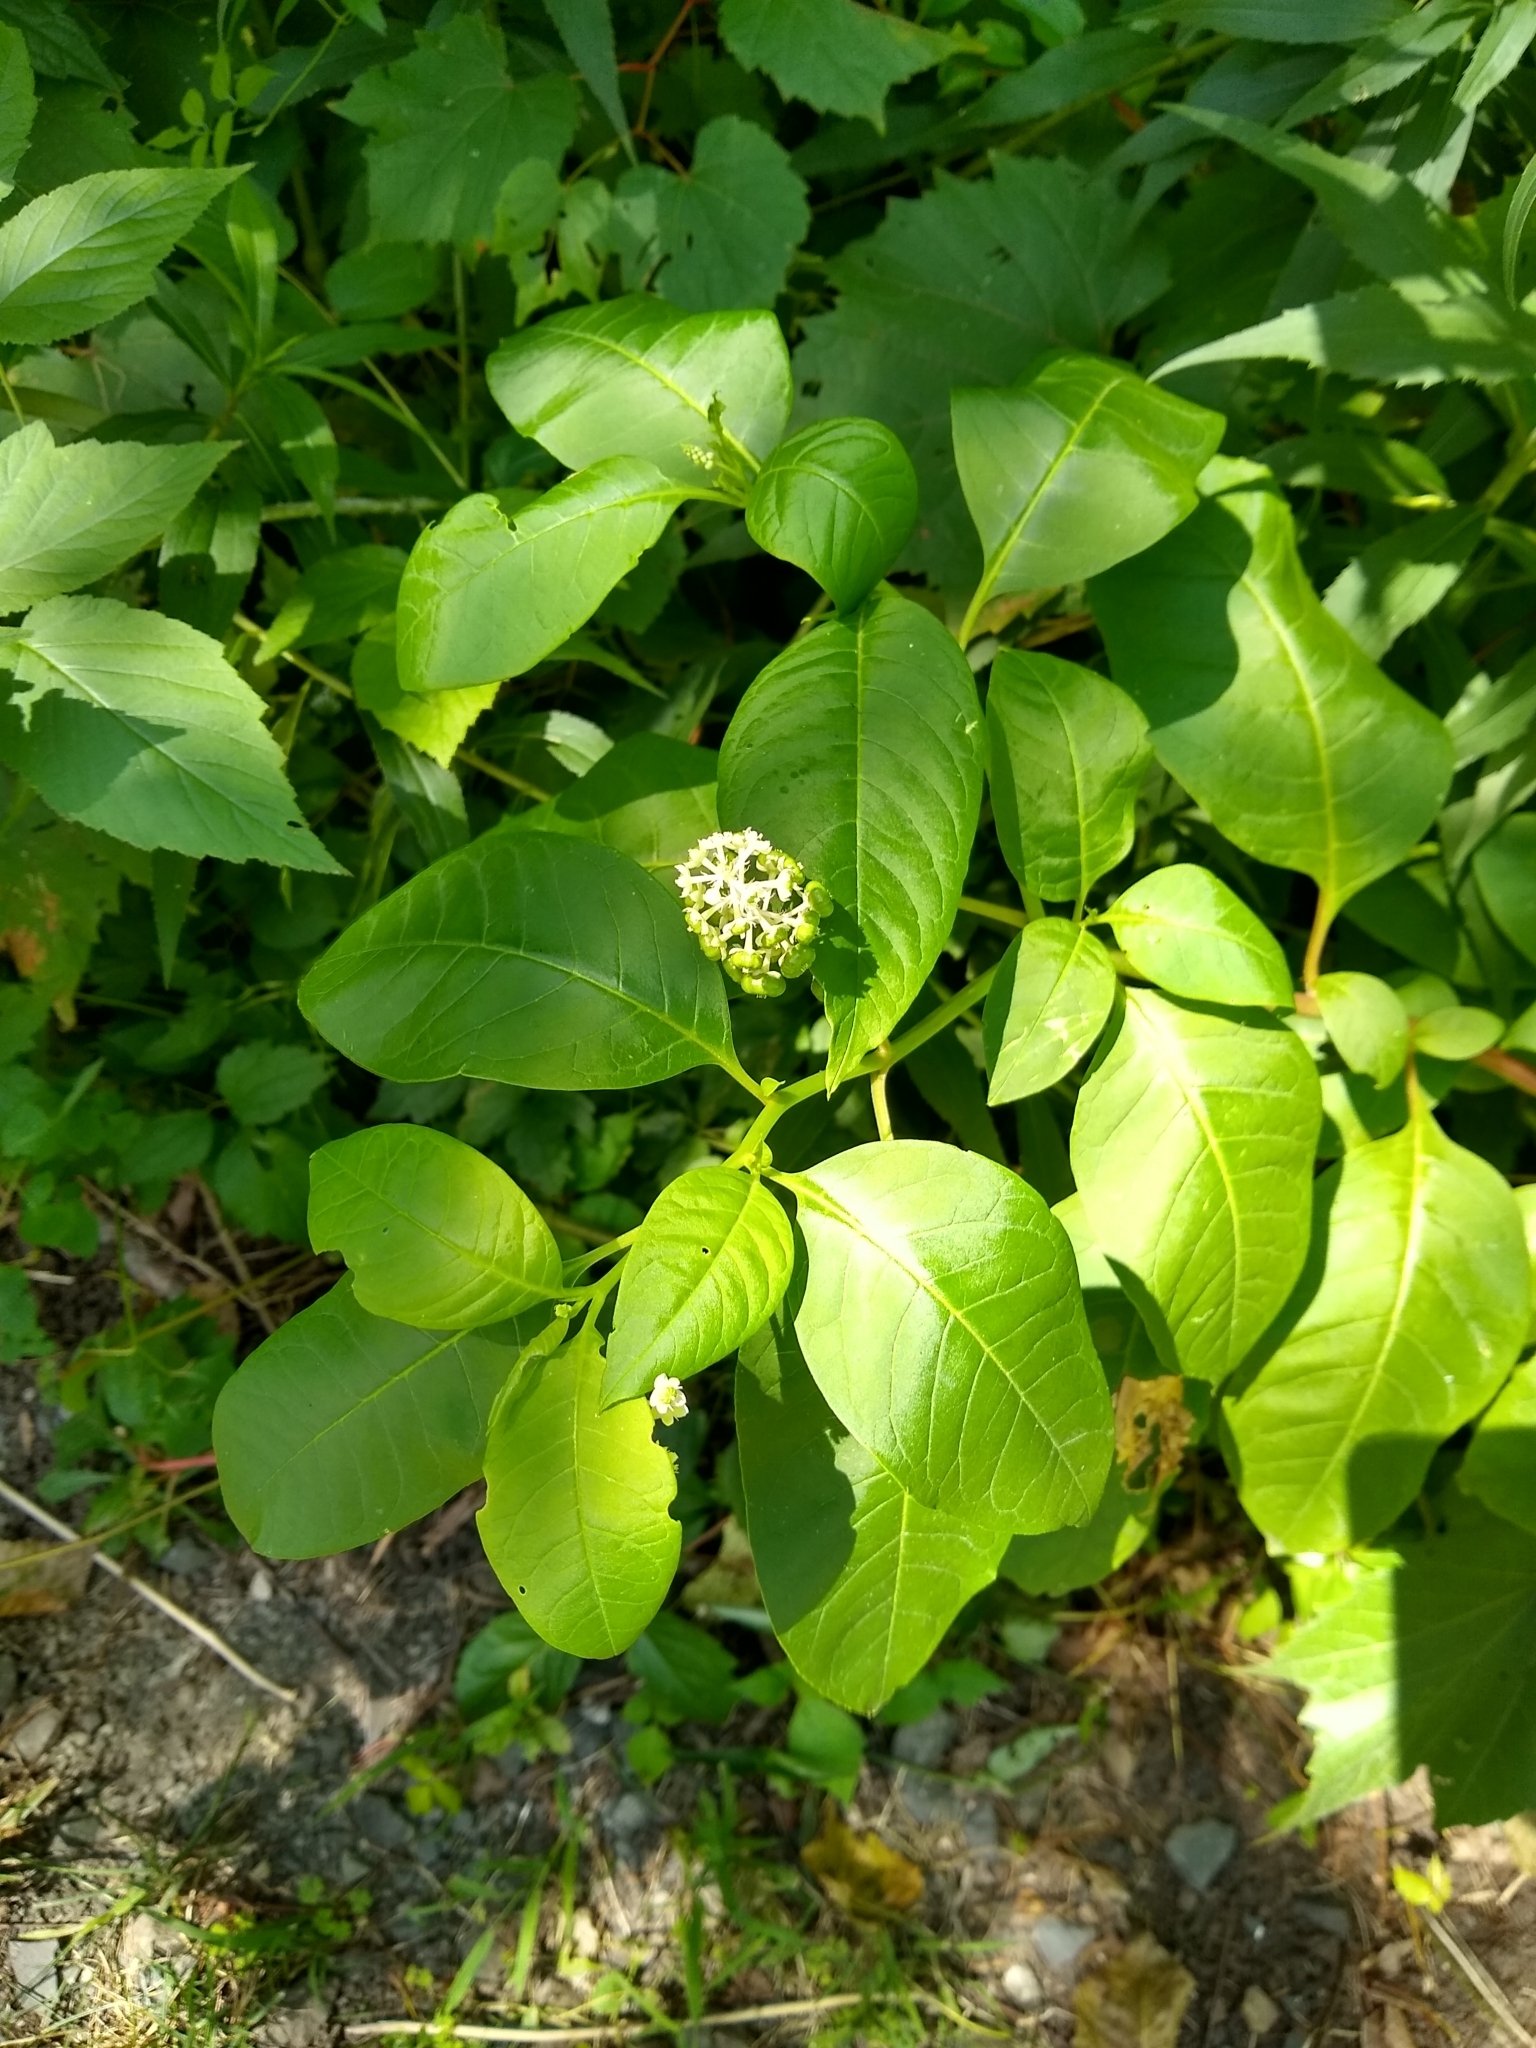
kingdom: Plantae
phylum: Tracheophyta
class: Magnoliopsida
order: Caryophyllales
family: Phytolaccaceae
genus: Phytolacca
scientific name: Phytolacca americana
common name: American pokeweed
